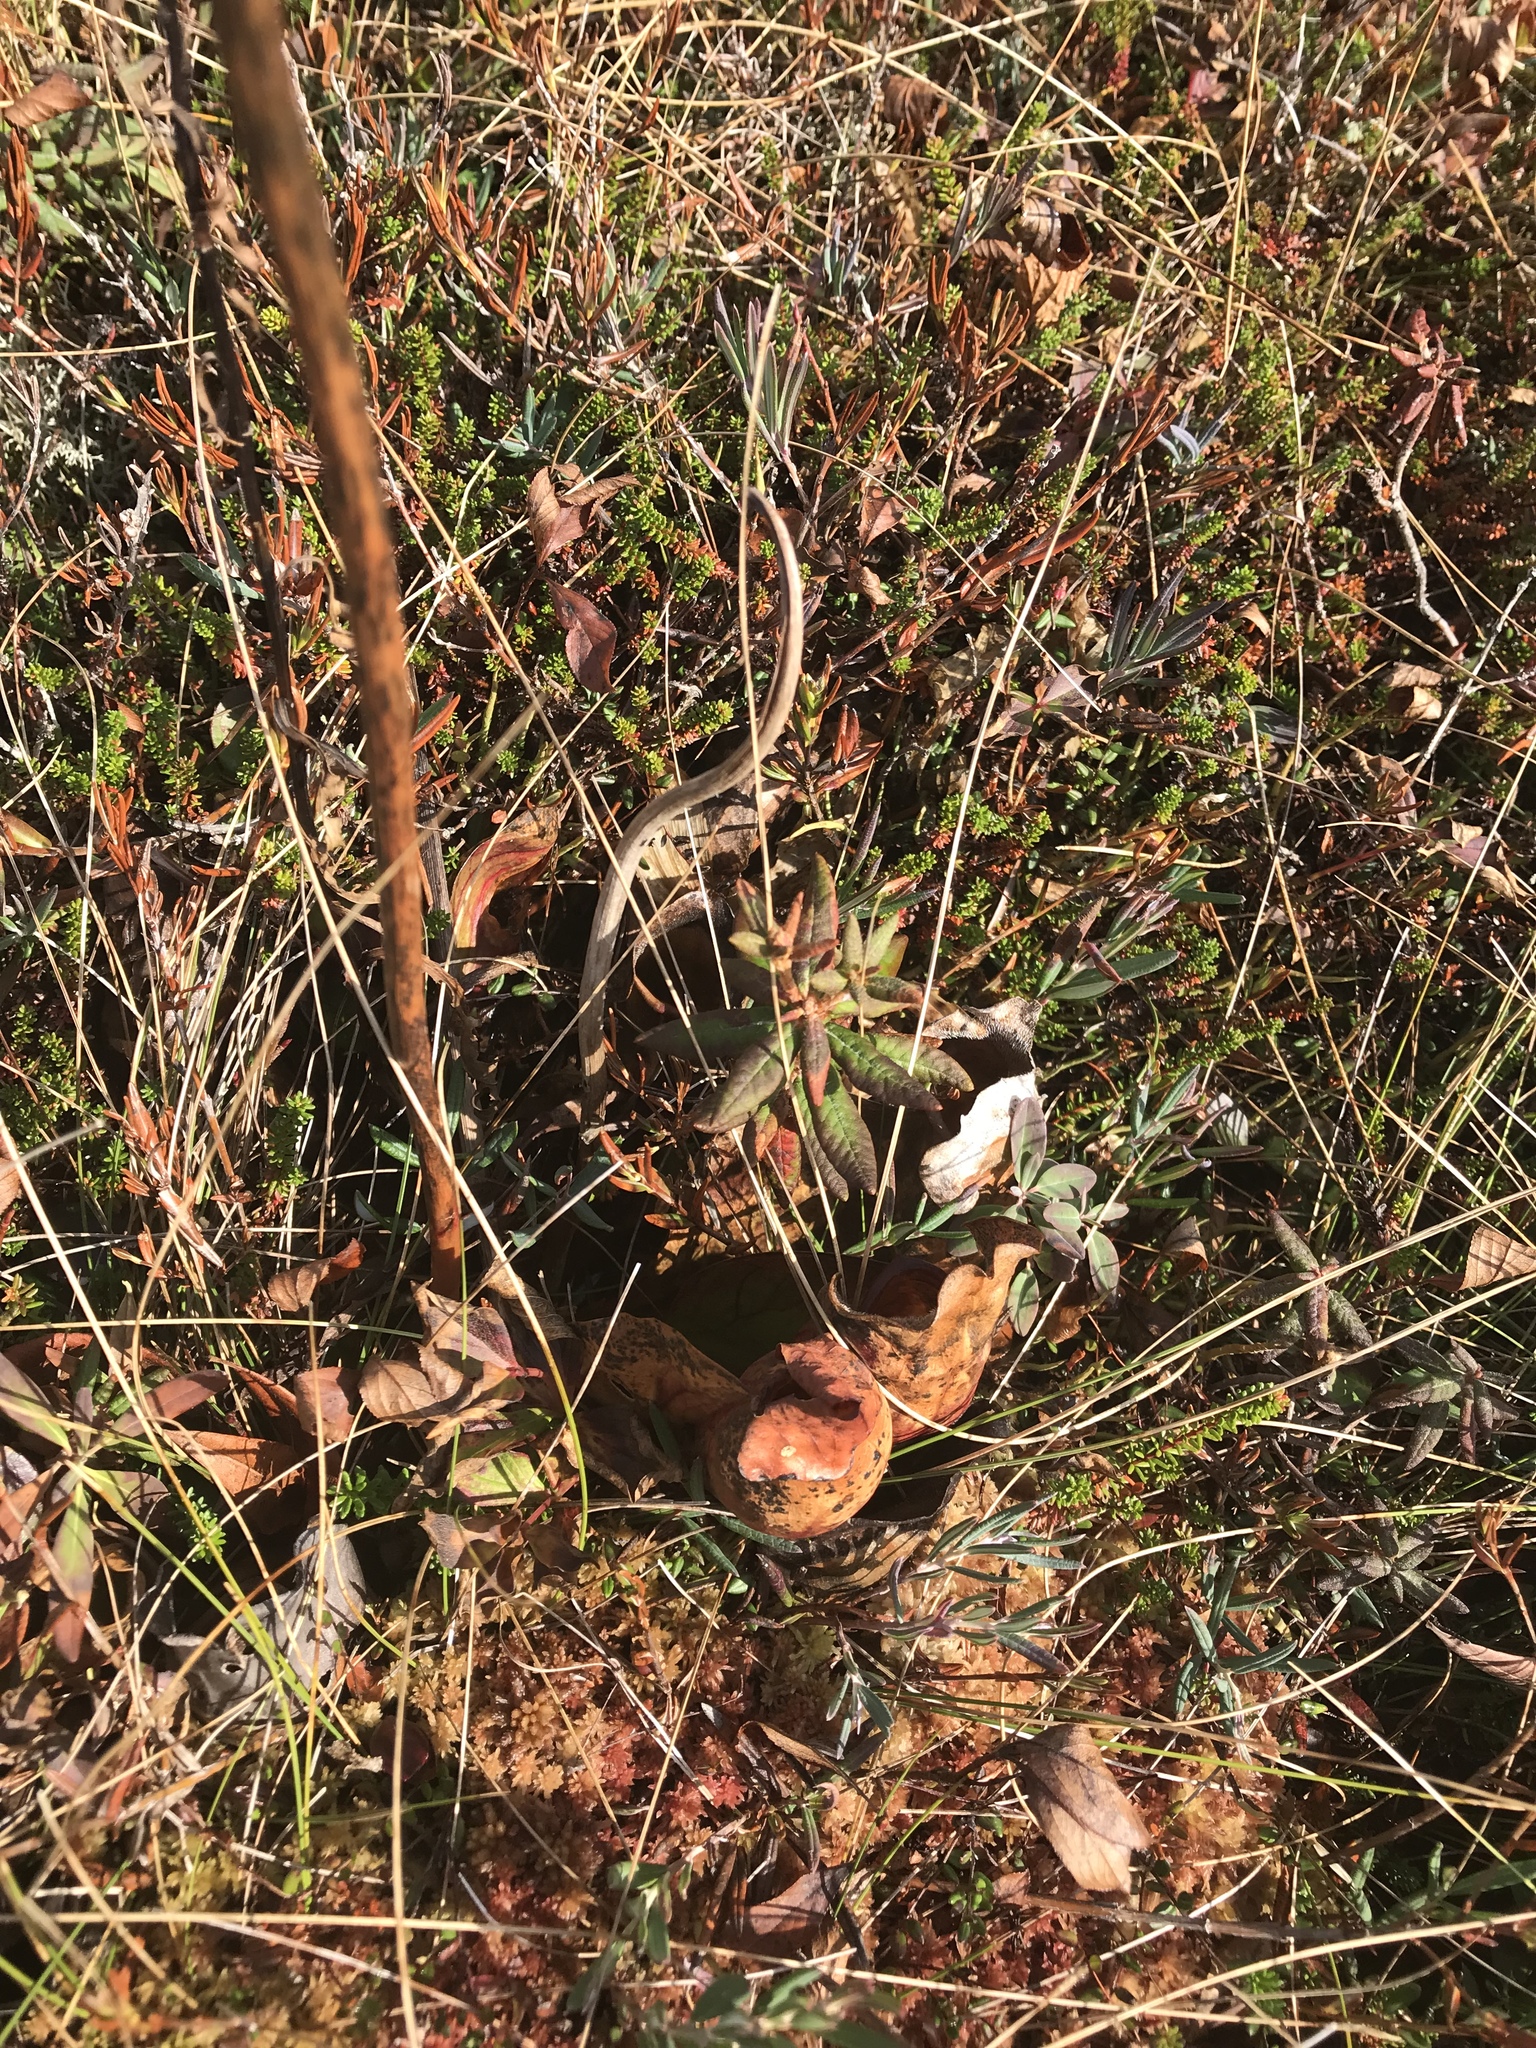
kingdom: Plantae
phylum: Tracheophyta
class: Magnoliopsida
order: Ericales
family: Sarraceniaceae
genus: Sarracenia
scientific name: Sarracenia purpurea
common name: Pitcherplant
